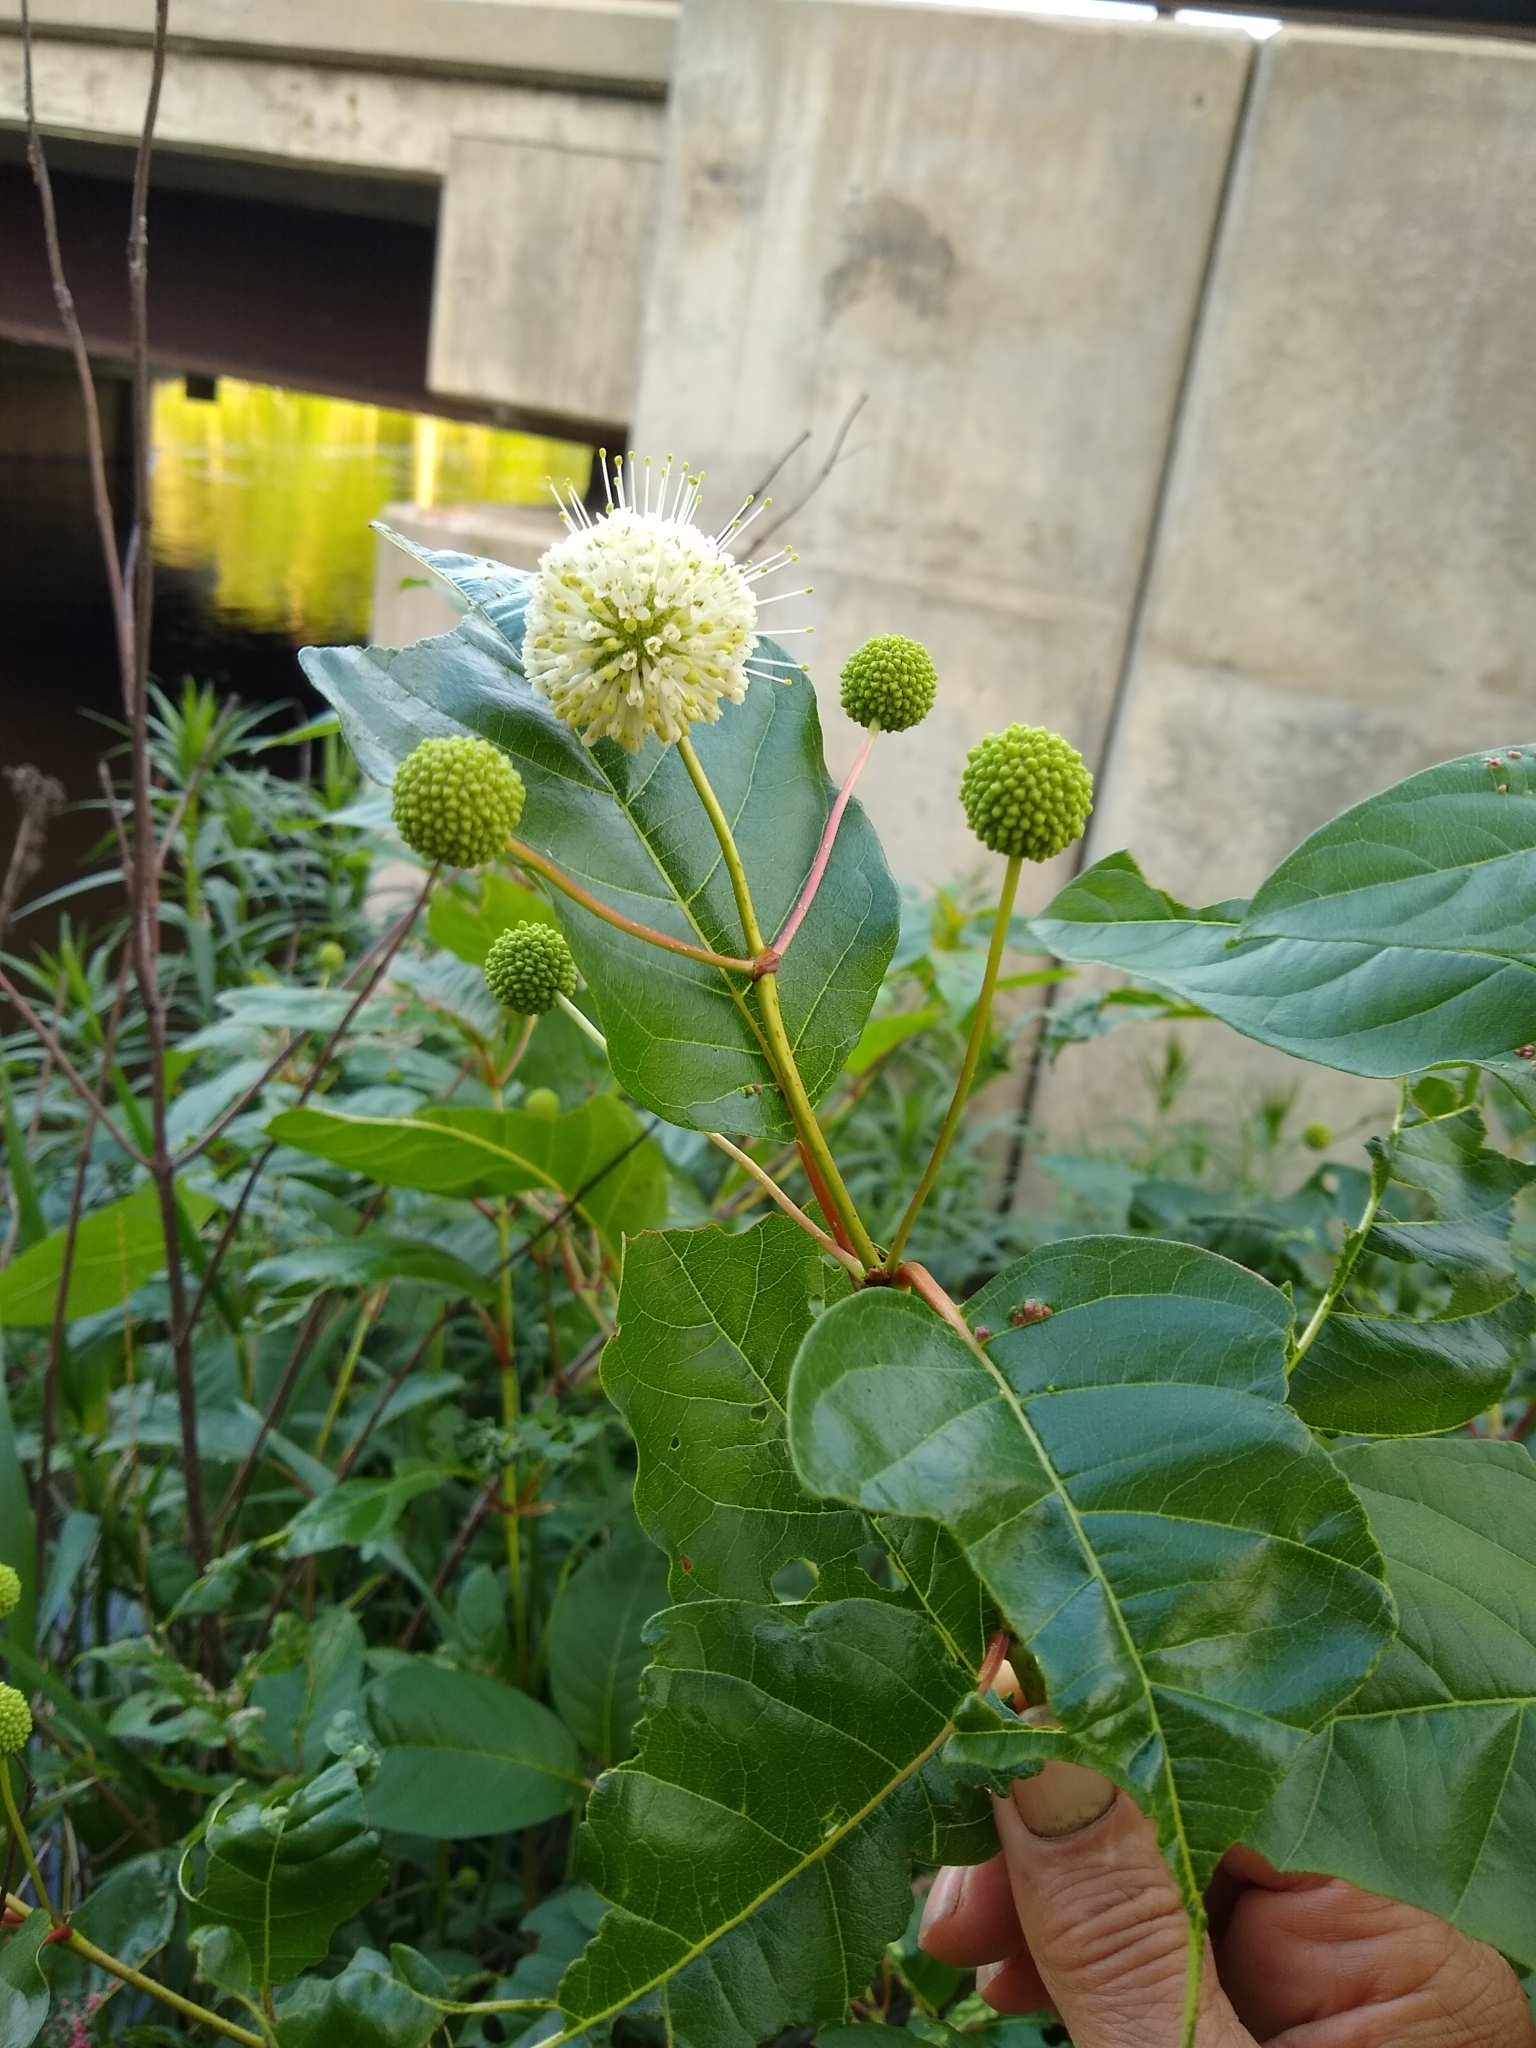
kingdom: Plantae
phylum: Tracheophyta
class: Magnoliopsida
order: Gentianales
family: Rubiaceae
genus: Cephalanthus
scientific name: Cephalanthus occidentalis
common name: Button-willow
